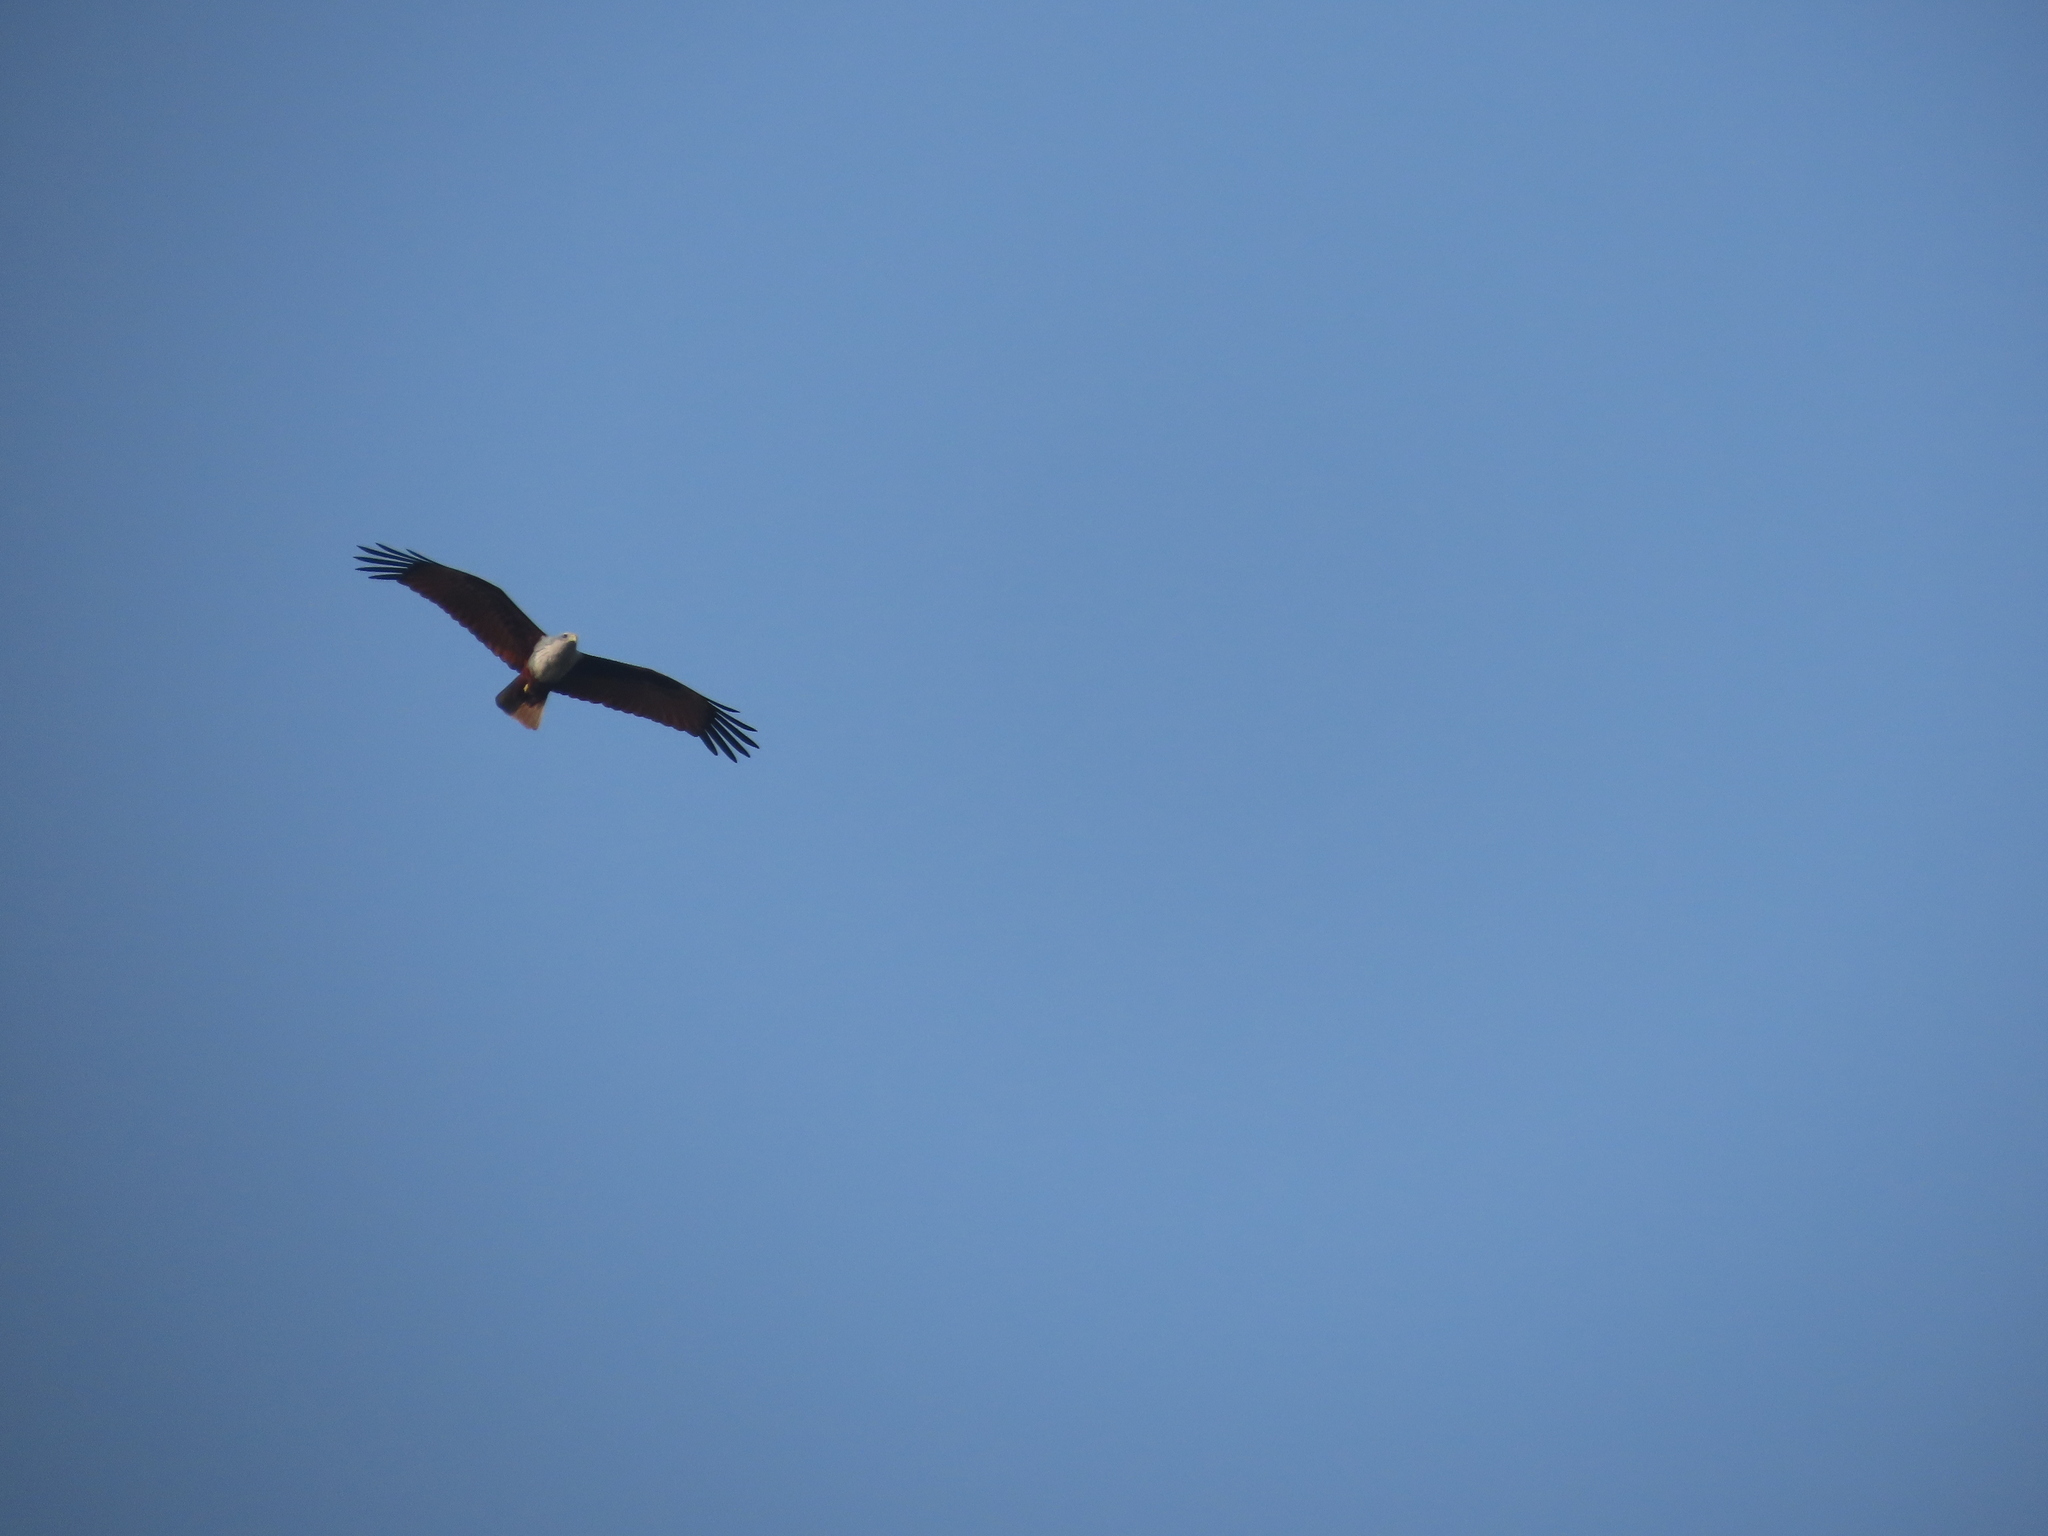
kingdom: Animalia
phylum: Chordata
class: Aves
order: Accipitriformes
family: Accipitridae
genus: Haliastur
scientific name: Haliastur indus
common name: Brahminy kite
